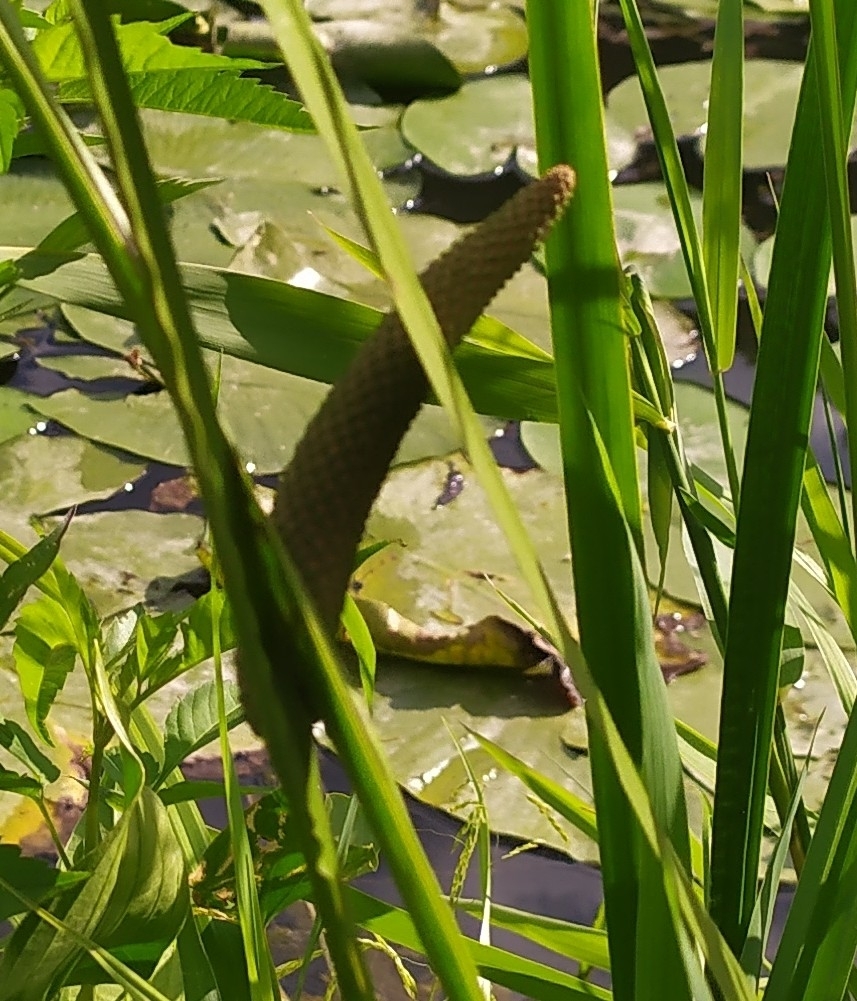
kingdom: Plantae
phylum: Tracheophyta
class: Liliopsida
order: Acorales
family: Acoraceae
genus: Acorus
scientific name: Acorus calamus
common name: Sweet-flag
